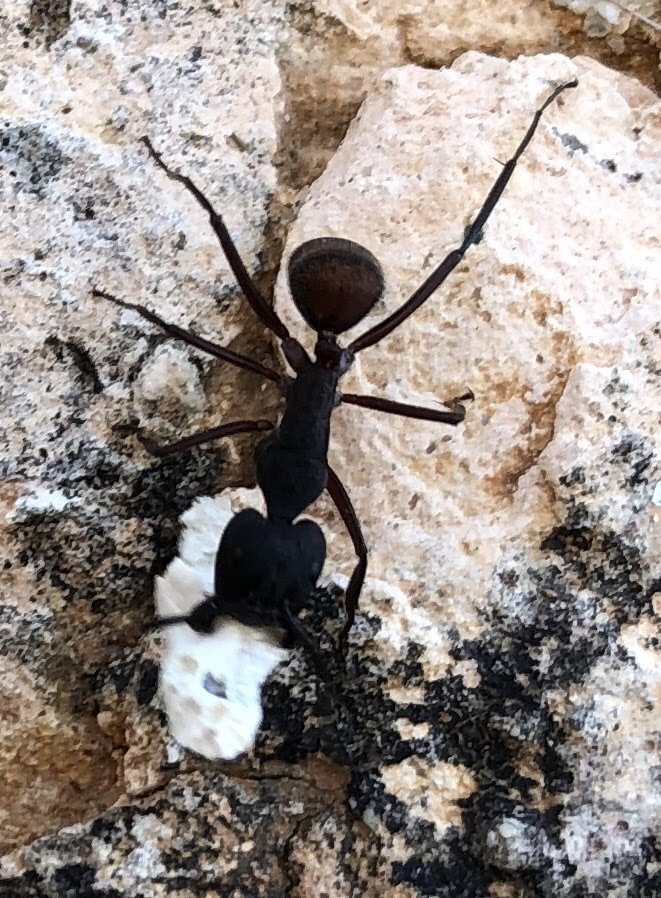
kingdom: Animalia
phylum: Arthropoda
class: Insecta
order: Hymenoptera
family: Formicidae
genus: Camponotus
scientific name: Camponotus cruentatus
